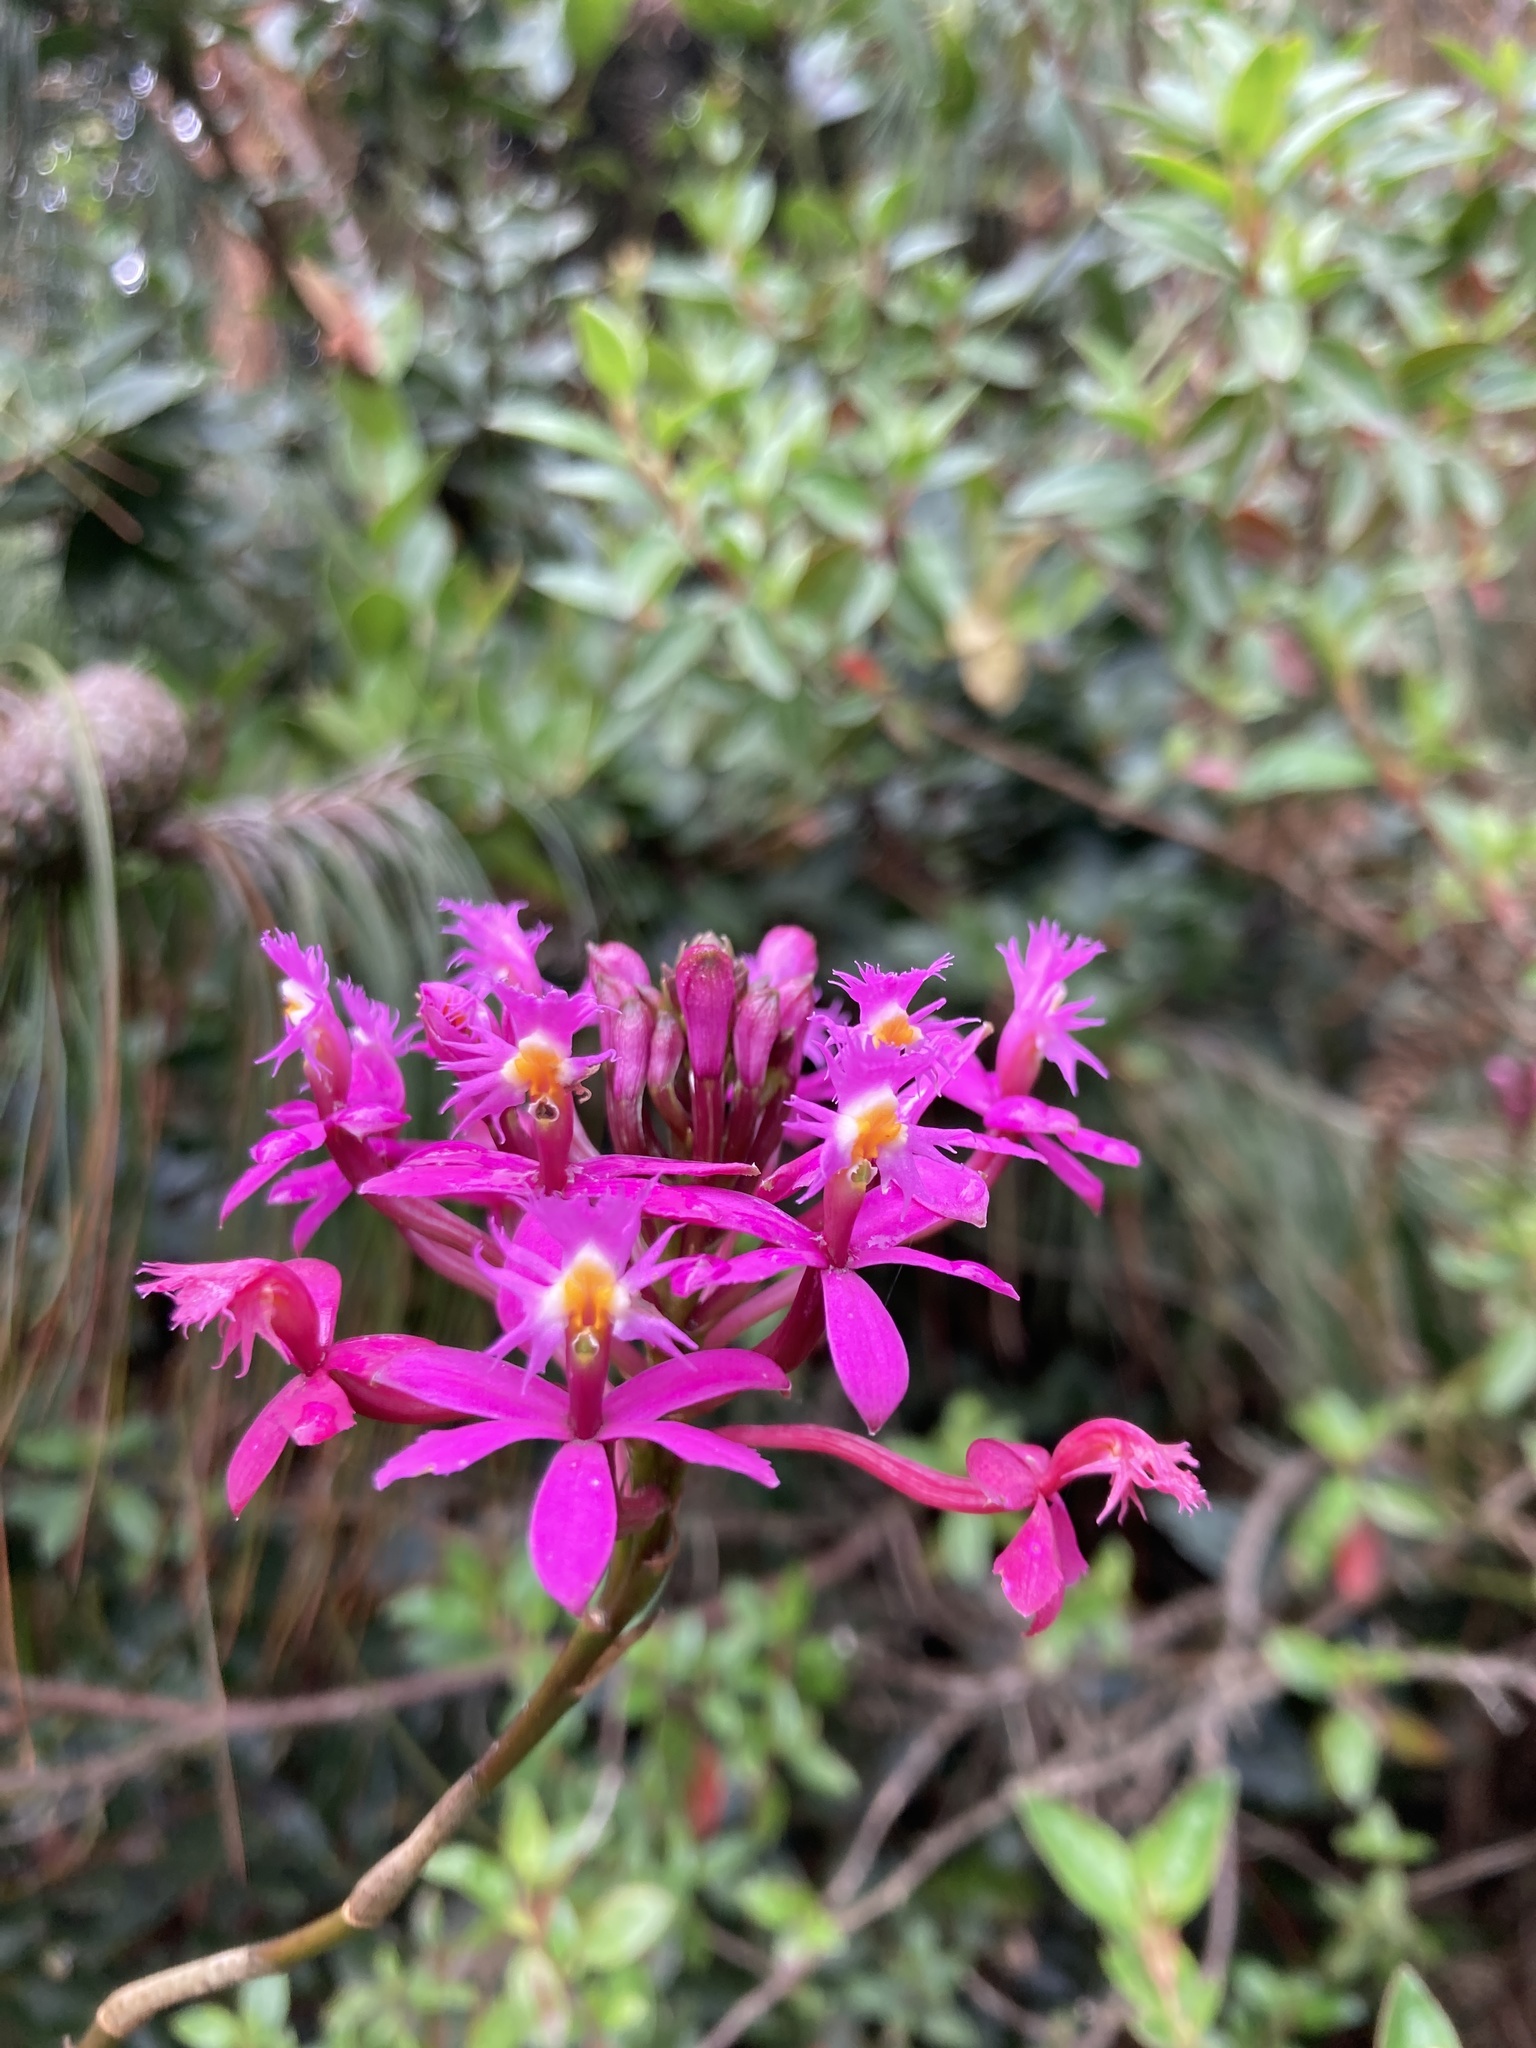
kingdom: Plantae
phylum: Tracheophyta
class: Liliopsida
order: Asparagales
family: Orchidaceae
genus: Epidendrum
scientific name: Epidendrum arachnoglossum
